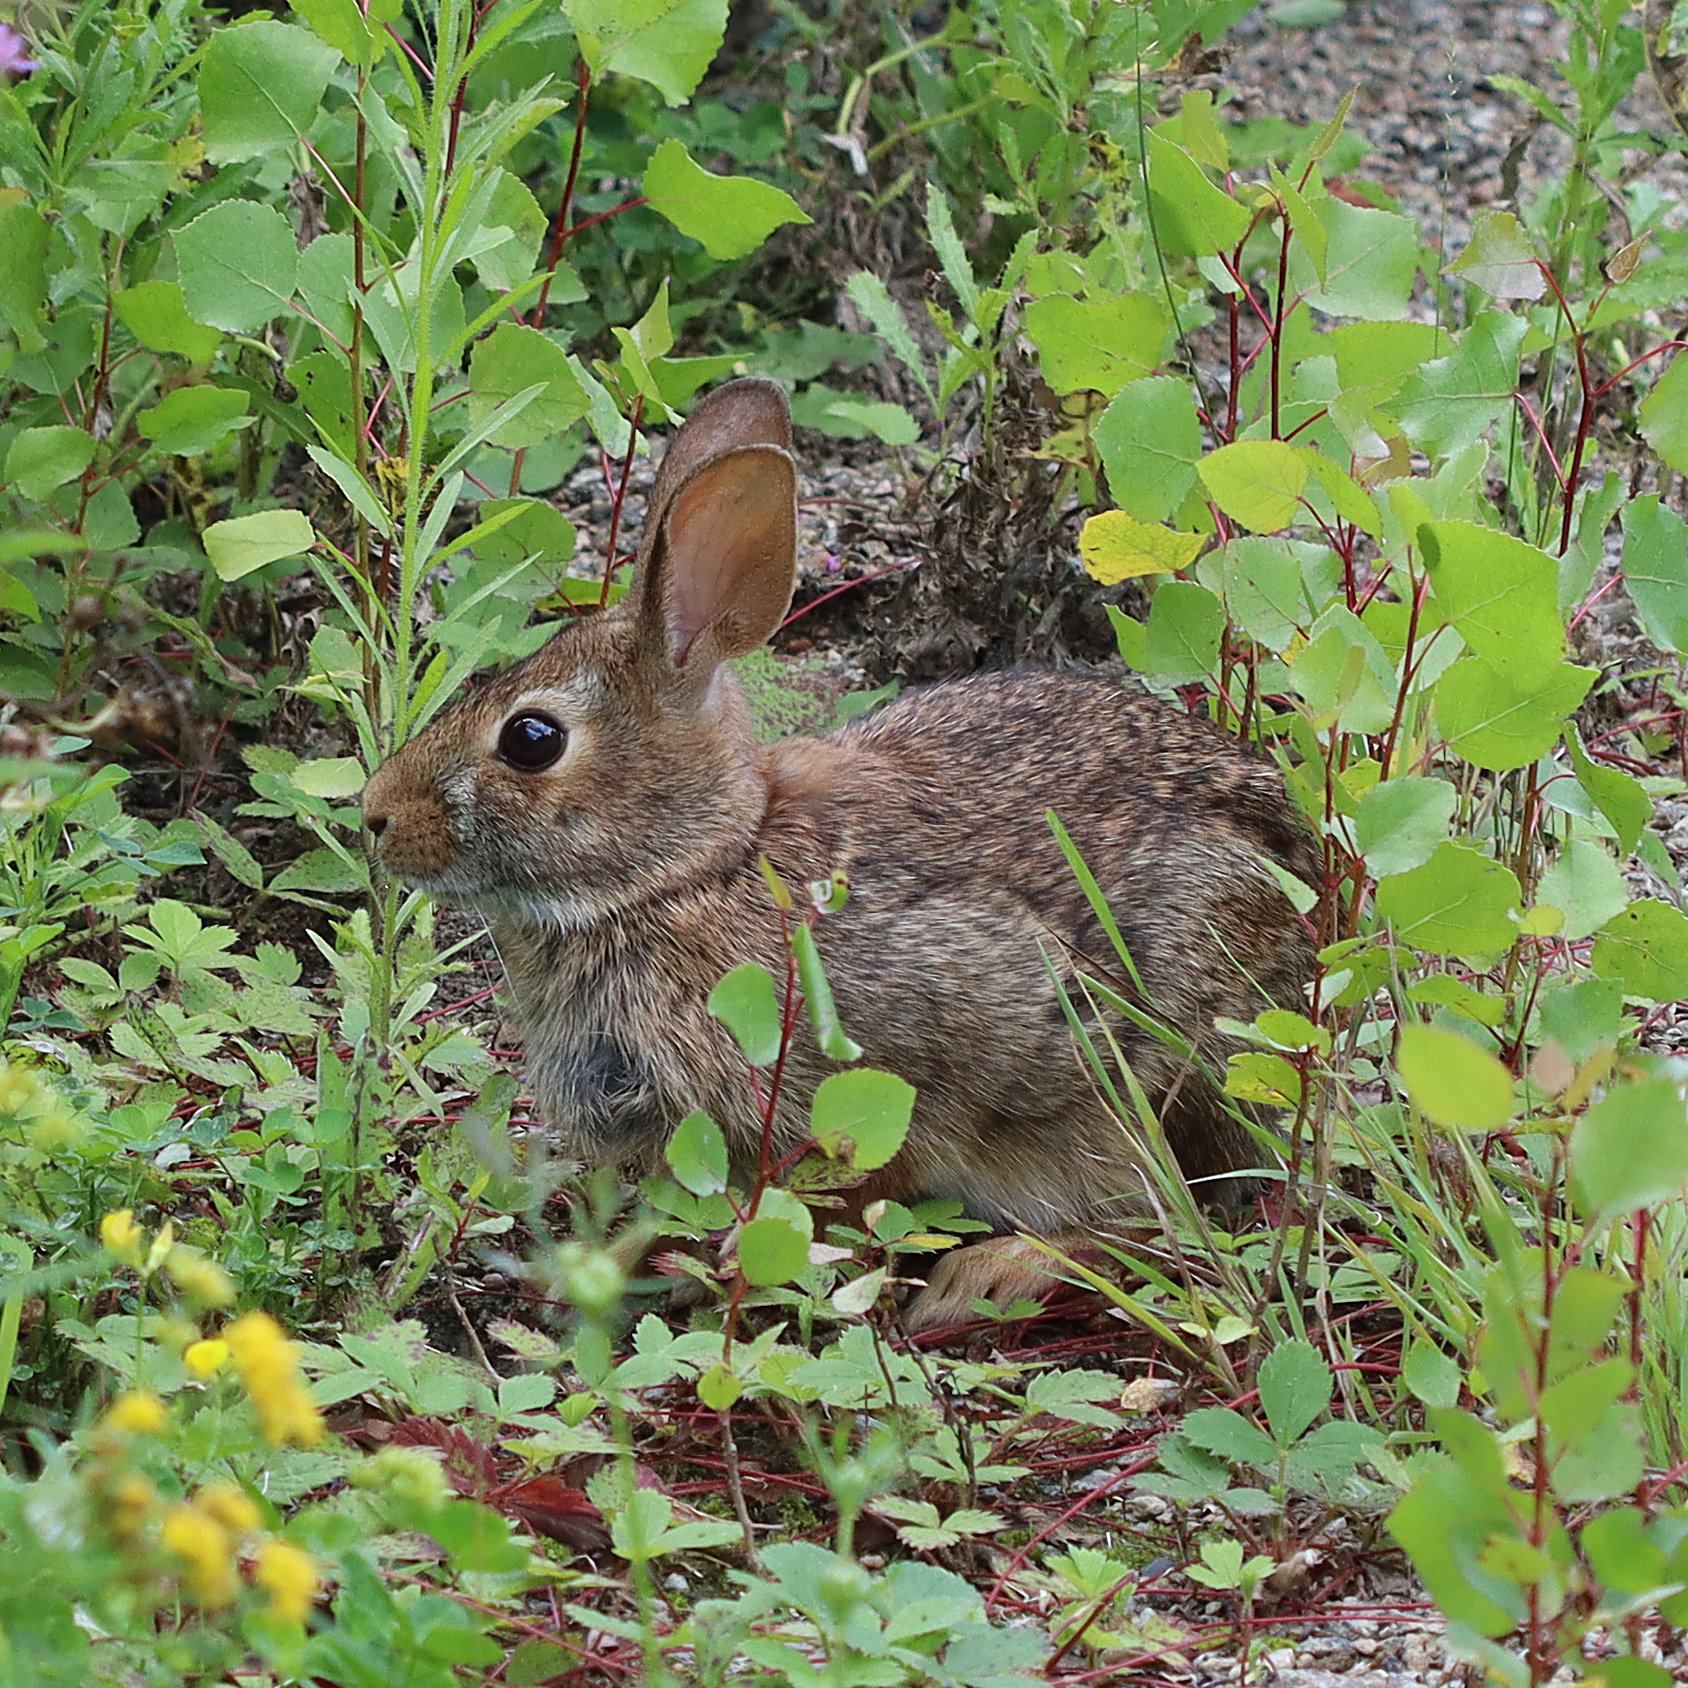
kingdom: Animalia
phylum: Chordata
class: Mammalia
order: Lagomorpha
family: Leporidae
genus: Sylvilagus
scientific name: Sylvilagus floridanus
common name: Eastern cottontail
